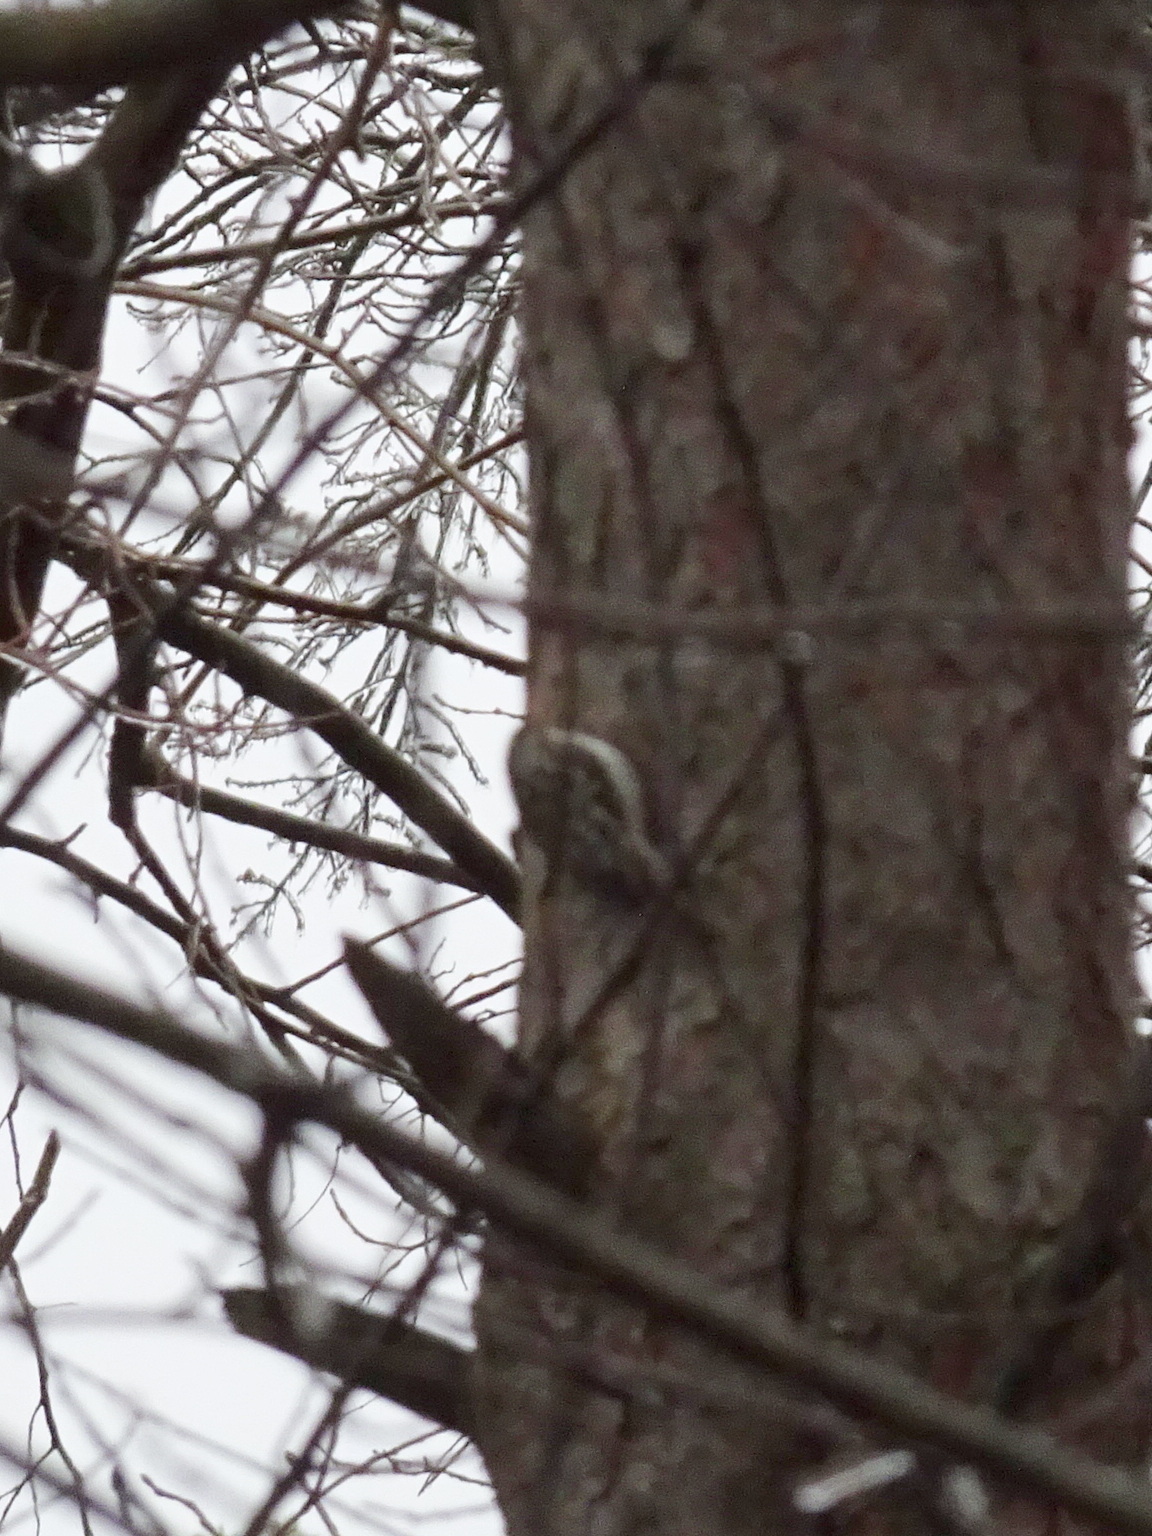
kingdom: Animalia
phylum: Chordata
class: Aves
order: Passeriformes
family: Certhiidae
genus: Certhia
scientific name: Certhia americana
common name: Brown creeper
